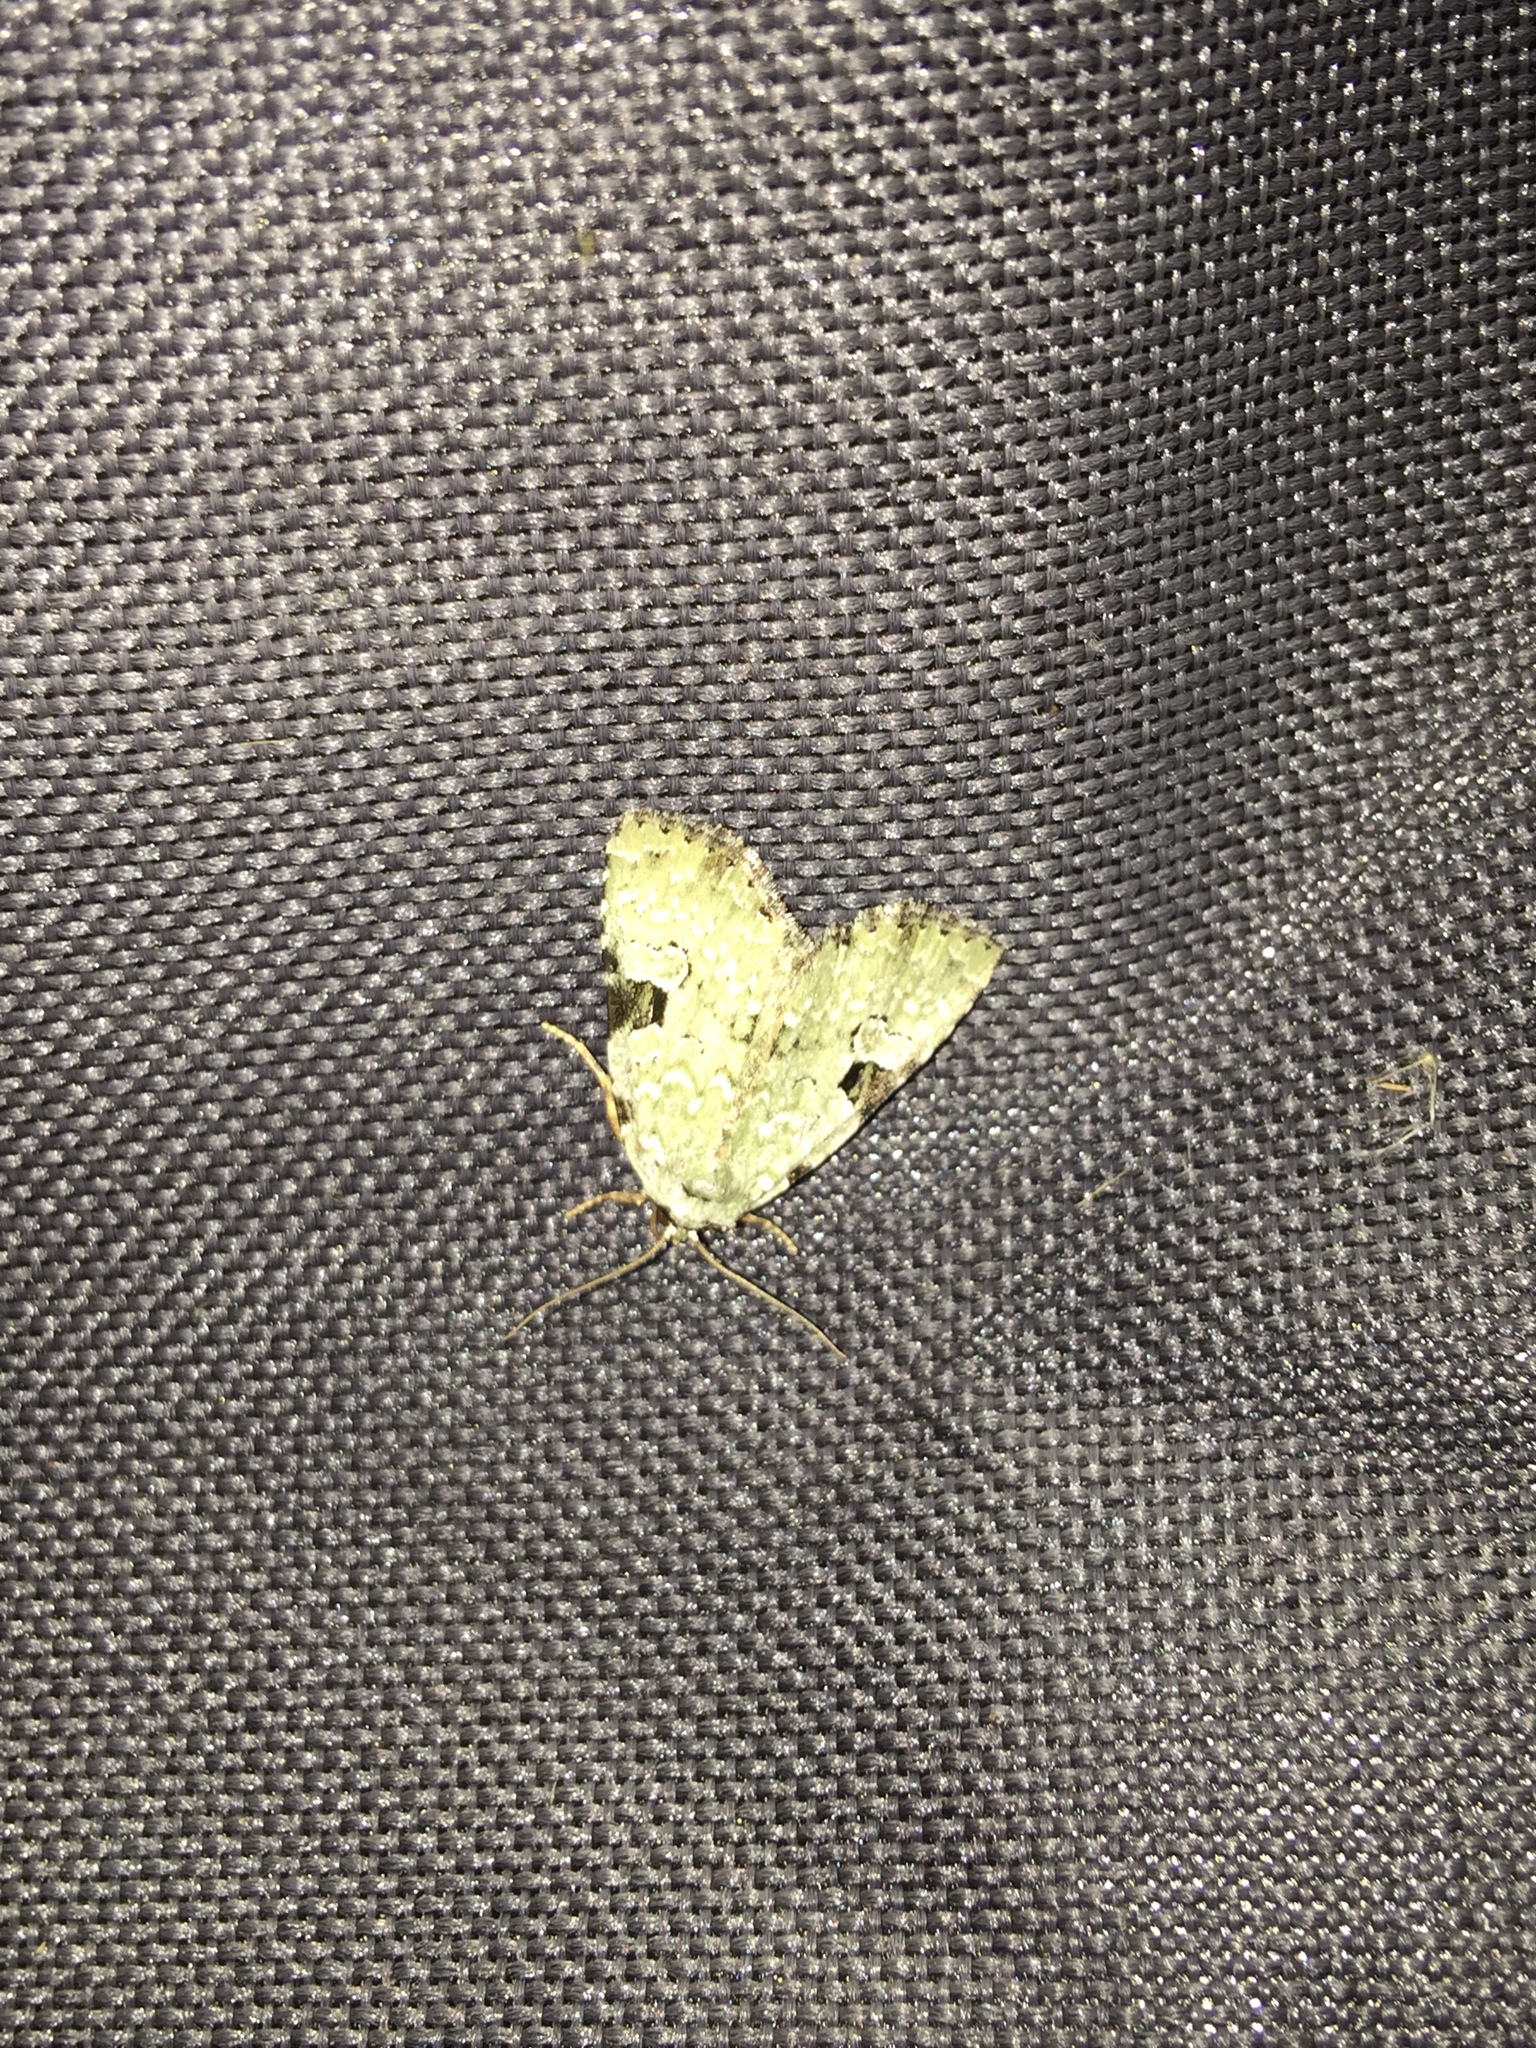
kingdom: Animalia
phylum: Arthropoda
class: Insecta
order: Lepidoptera
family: Noctuidae
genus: Leuconycta
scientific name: Leuconycta diphteroides
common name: Green leuconycta moth
